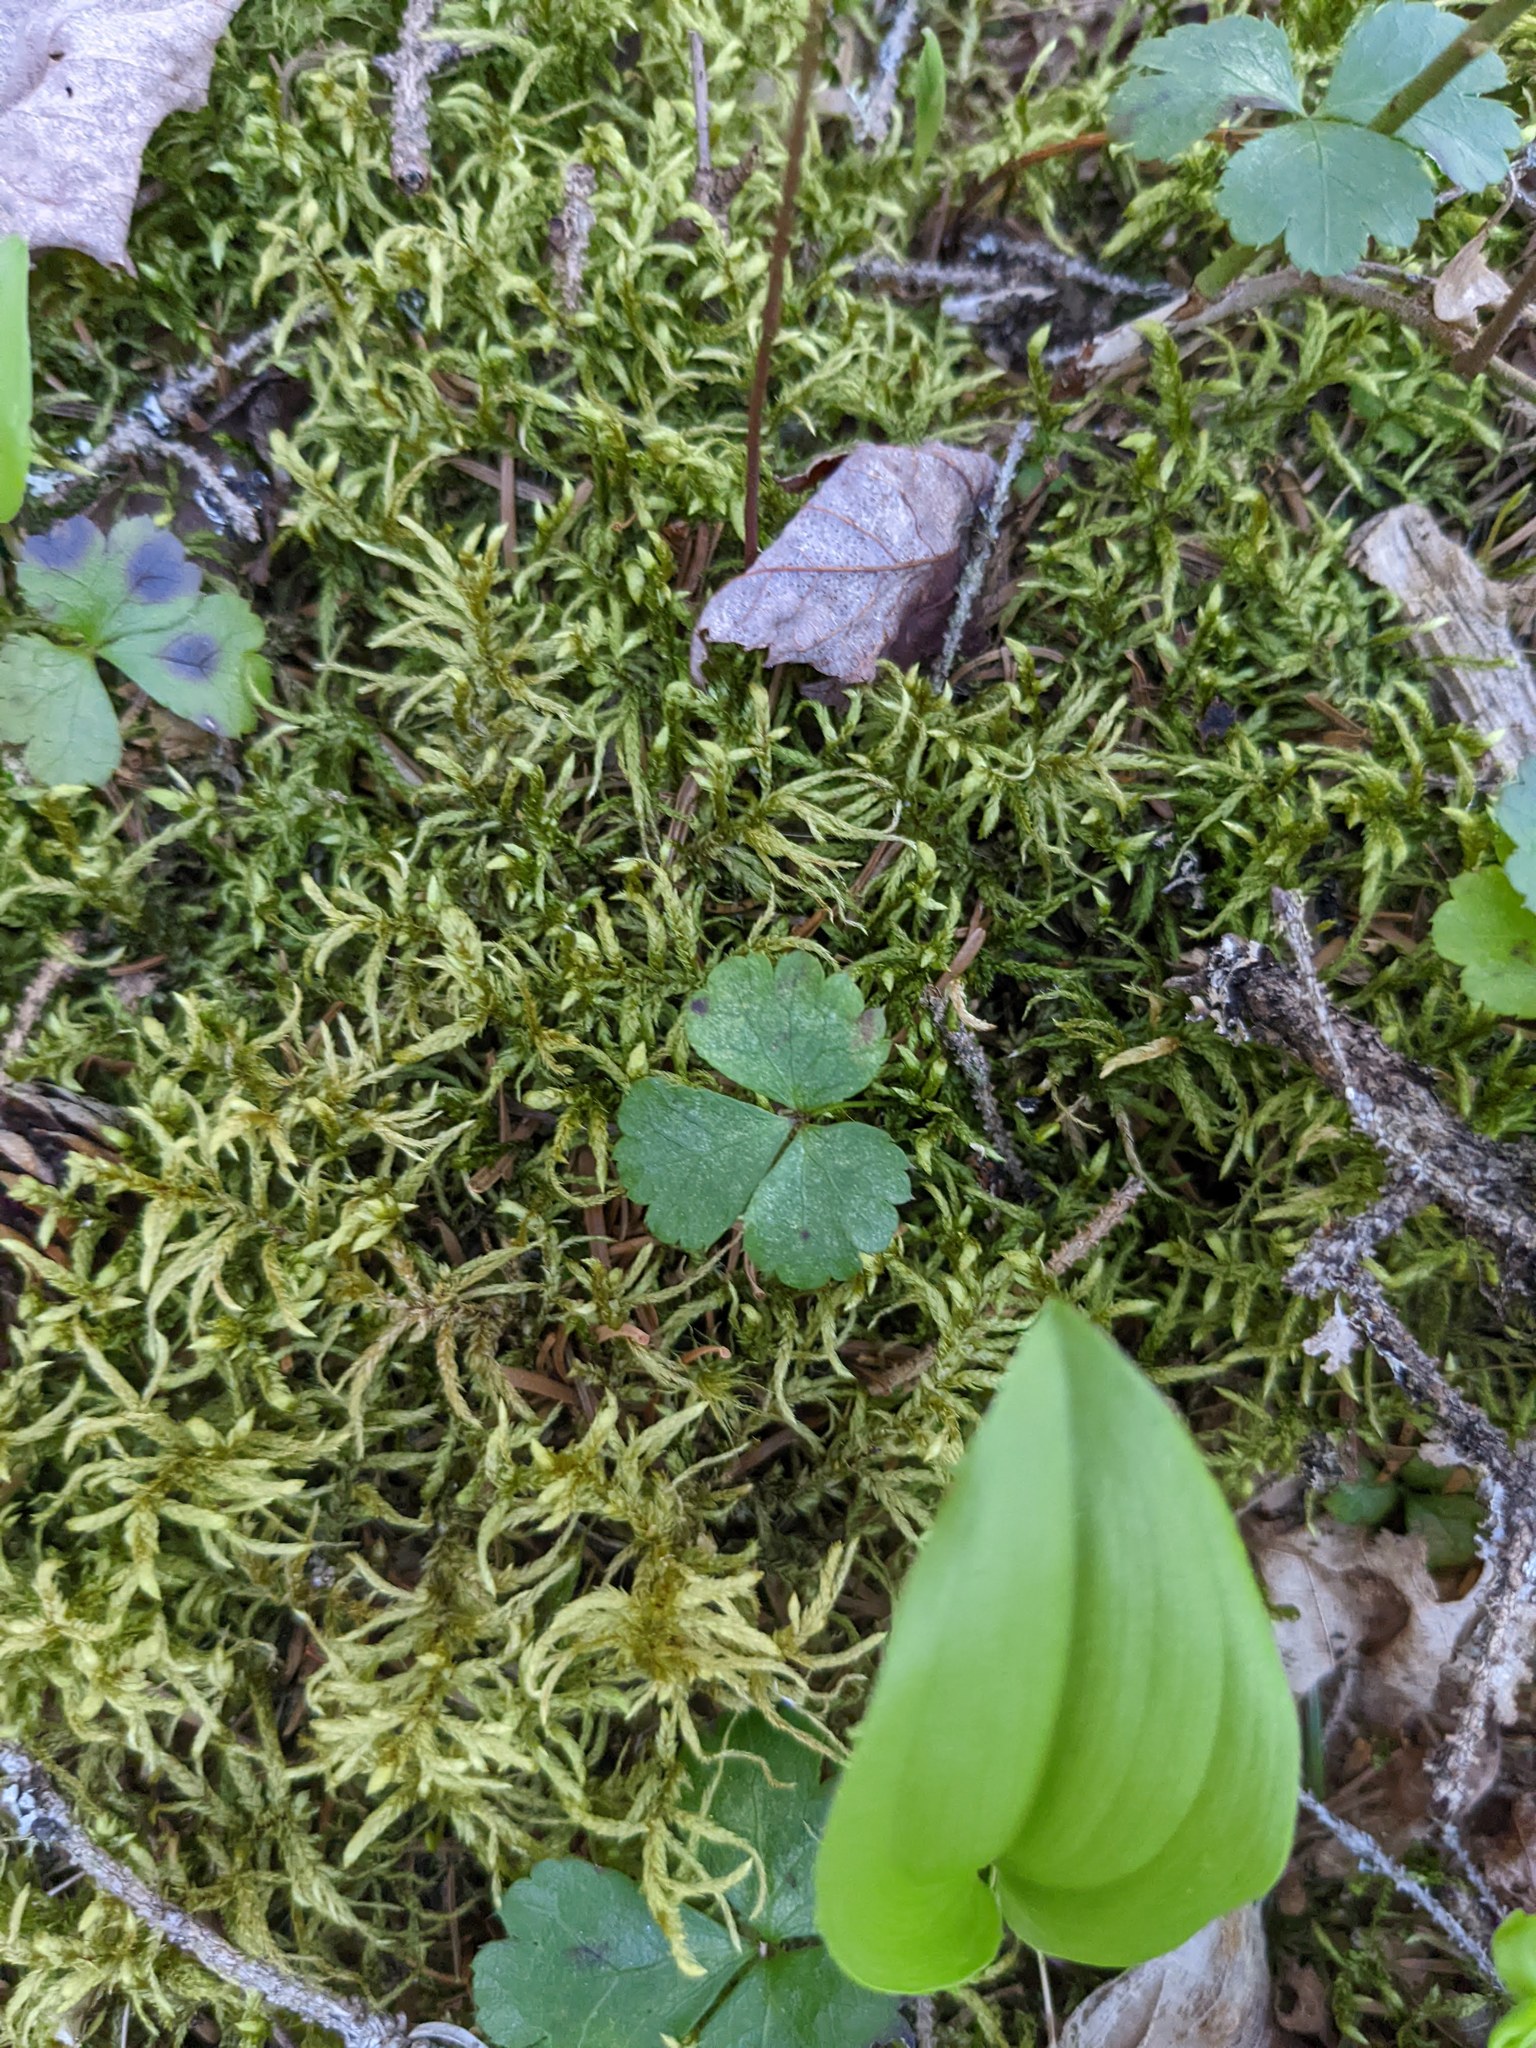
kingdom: Plantae
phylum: Tracheophyta
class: Magnoliopsida
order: Ranunculales
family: Ranunculaceae
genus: Coptis
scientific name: Coptis trifolia
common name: Canker-root
